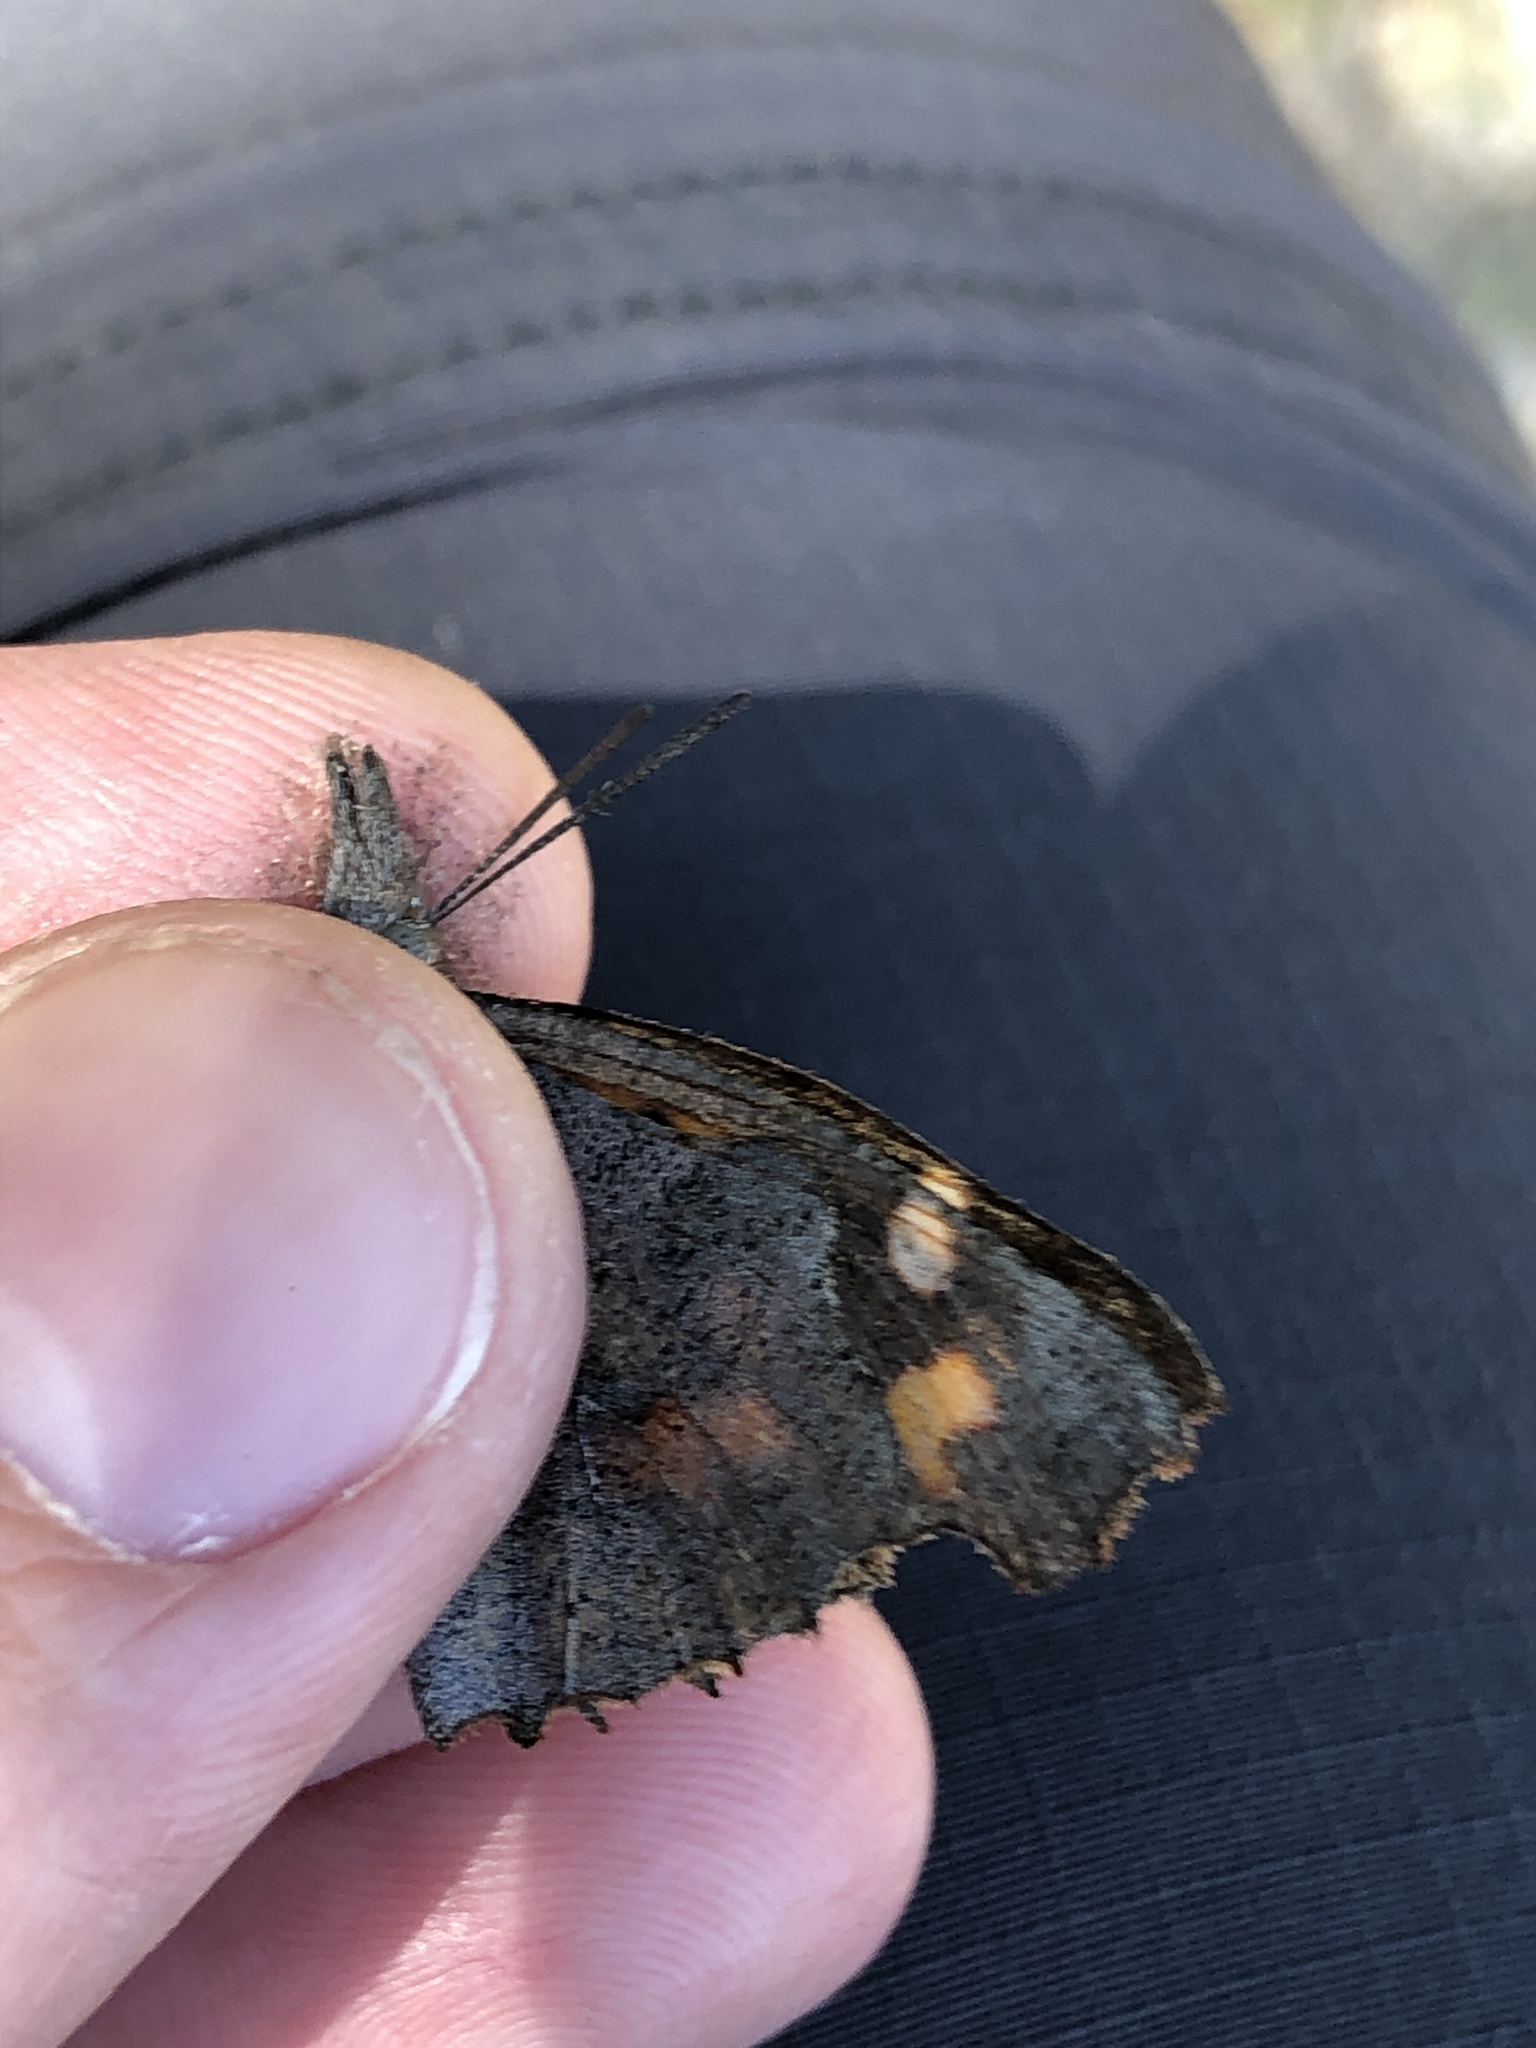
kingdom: Animalia
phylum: Arthropoda
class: Insecta
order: Lepidoptera
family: Nymphalidae
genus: Libythea
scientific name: Libythea celtis
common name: Nettle-tree butterfly
